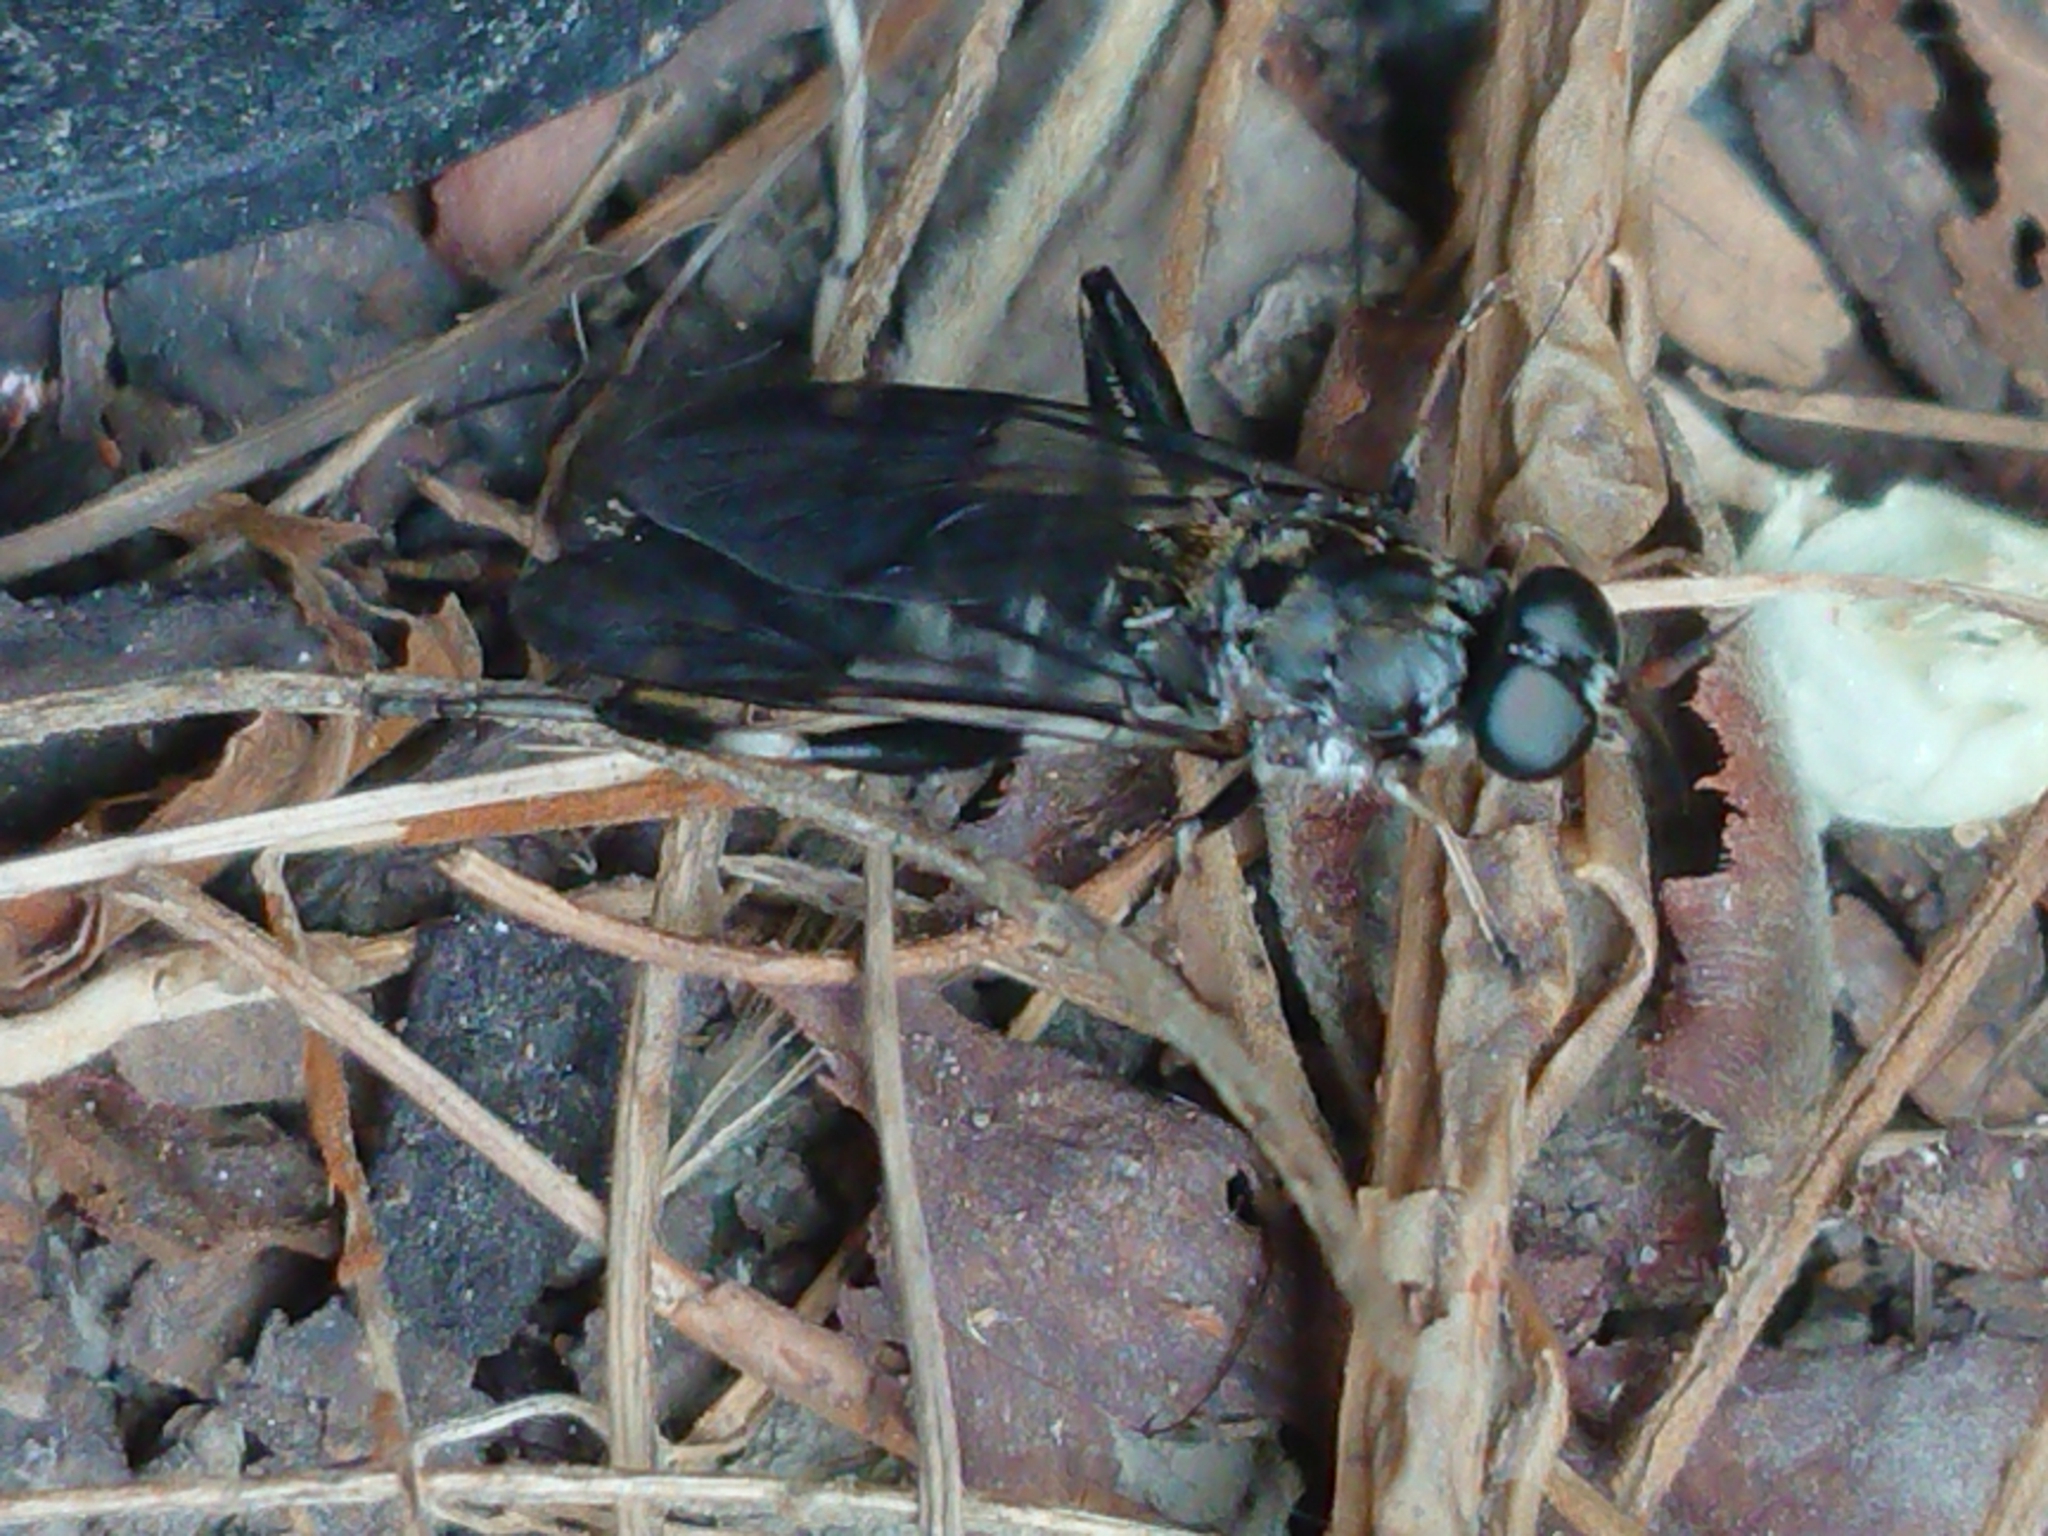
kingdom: Animalia
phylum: Arthropoda
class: Insecta
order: Diptera
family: Stratiomyidae
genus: Exaireta
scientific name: Exaireta spinigera
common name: Blue soldier fly
